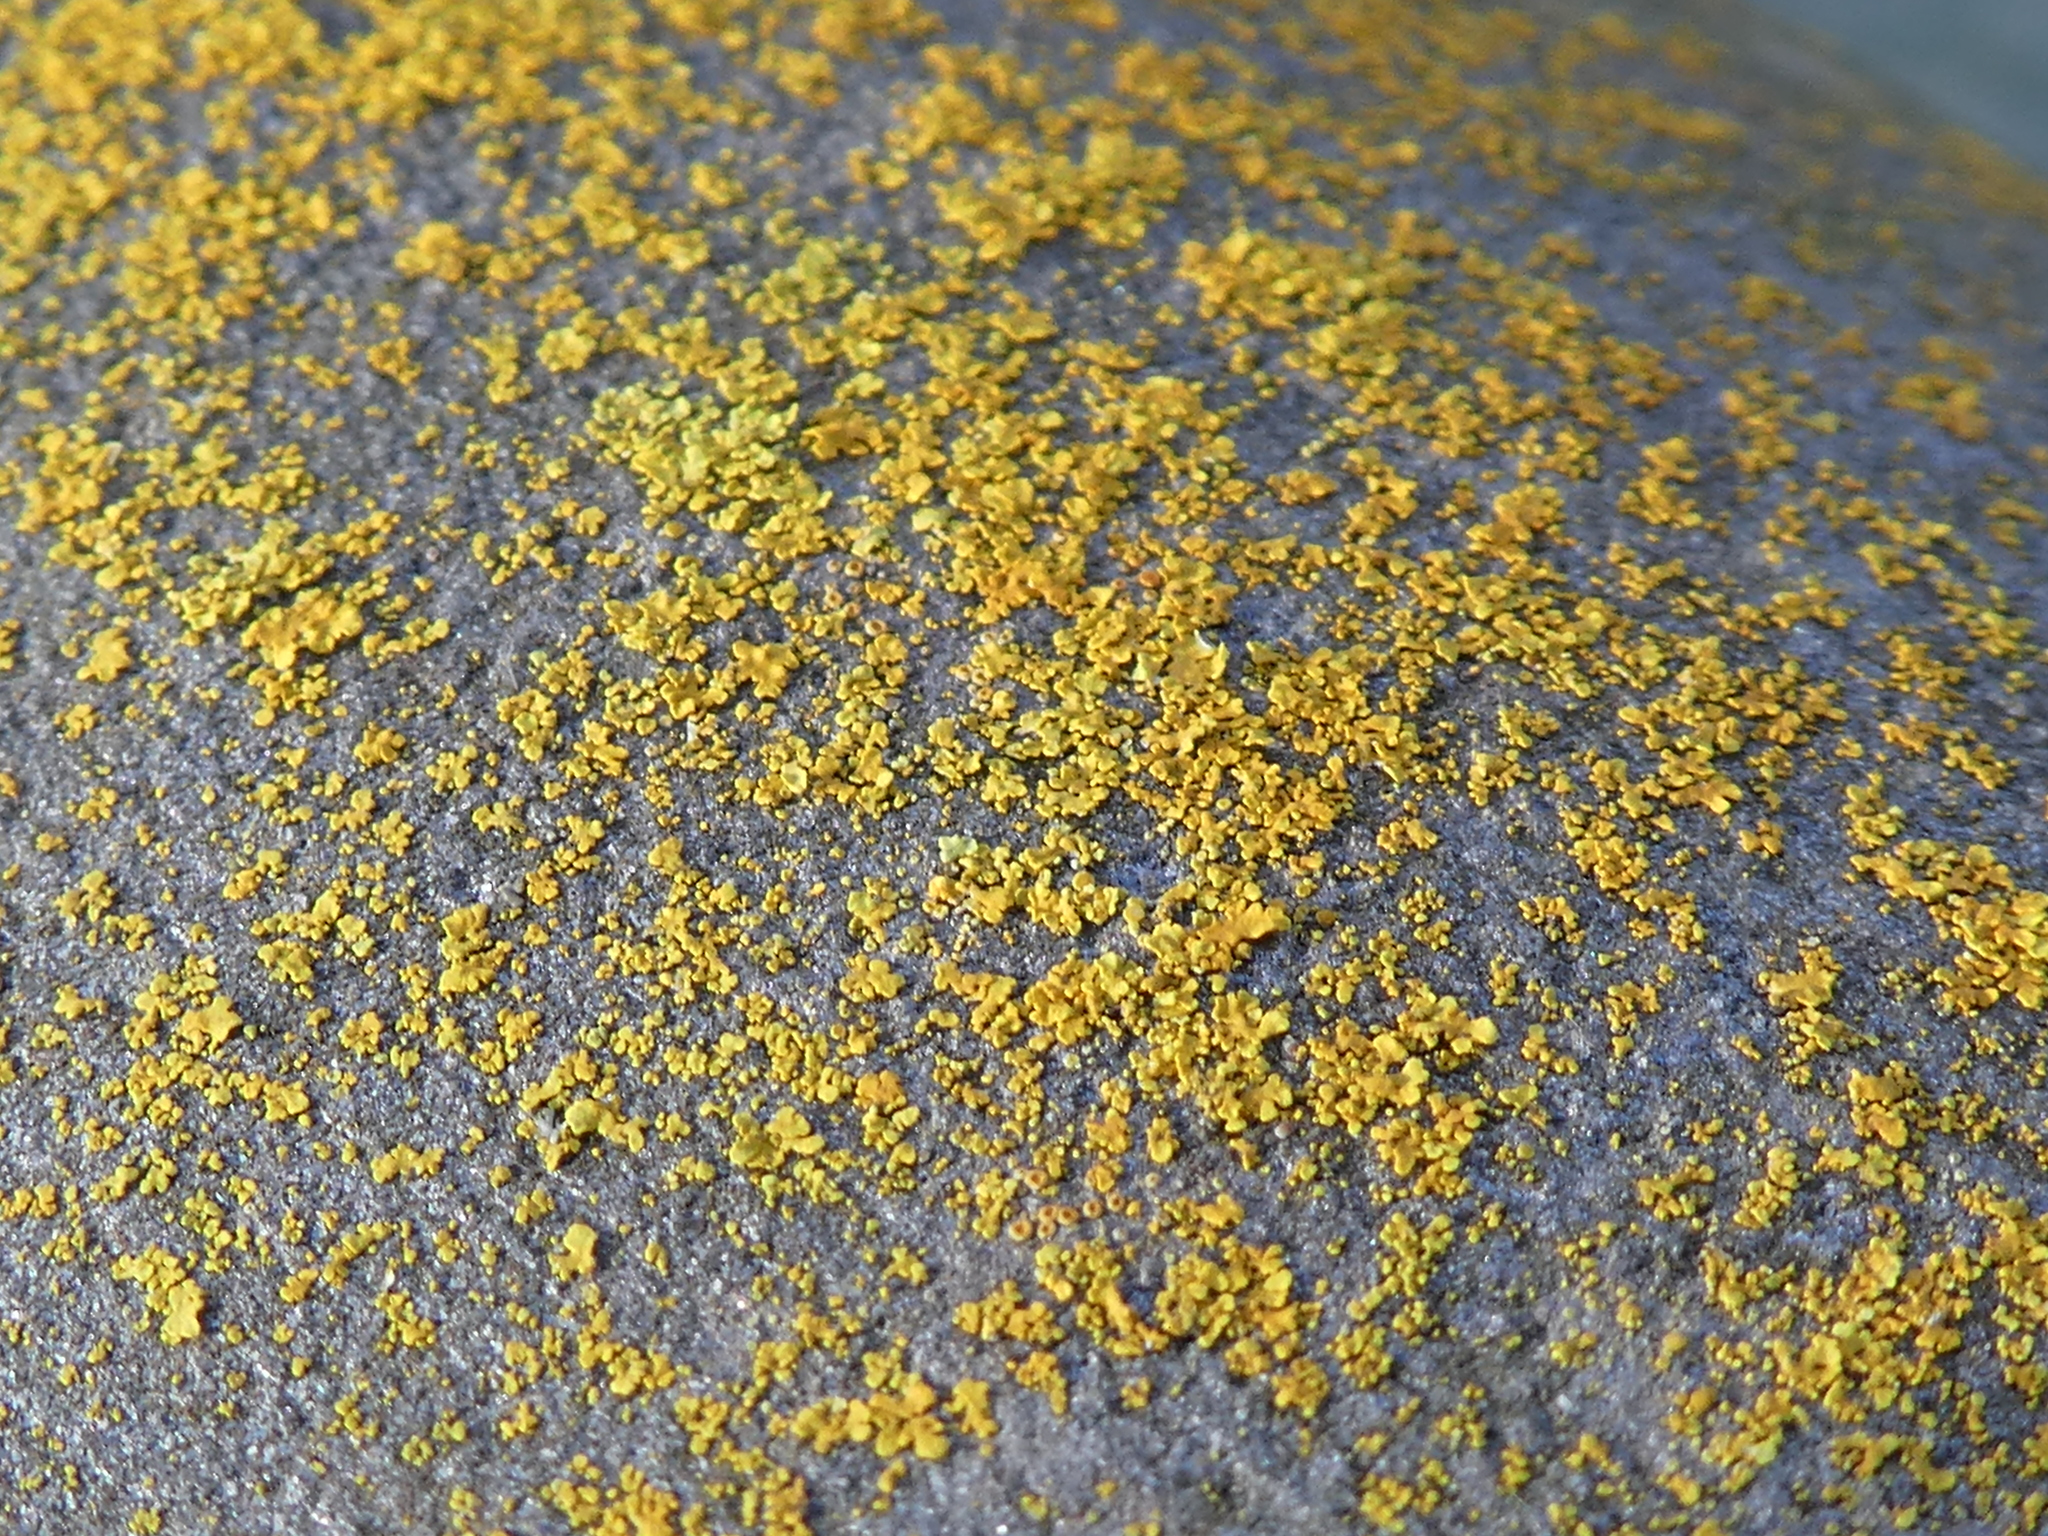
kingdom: Fungi
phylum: Ascomycota
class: Lecanoromycetes
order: Teloschistales
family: Teloschistaceae
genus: Xanthoria
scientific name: Xanthoria parietina
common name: Common orange lichen
